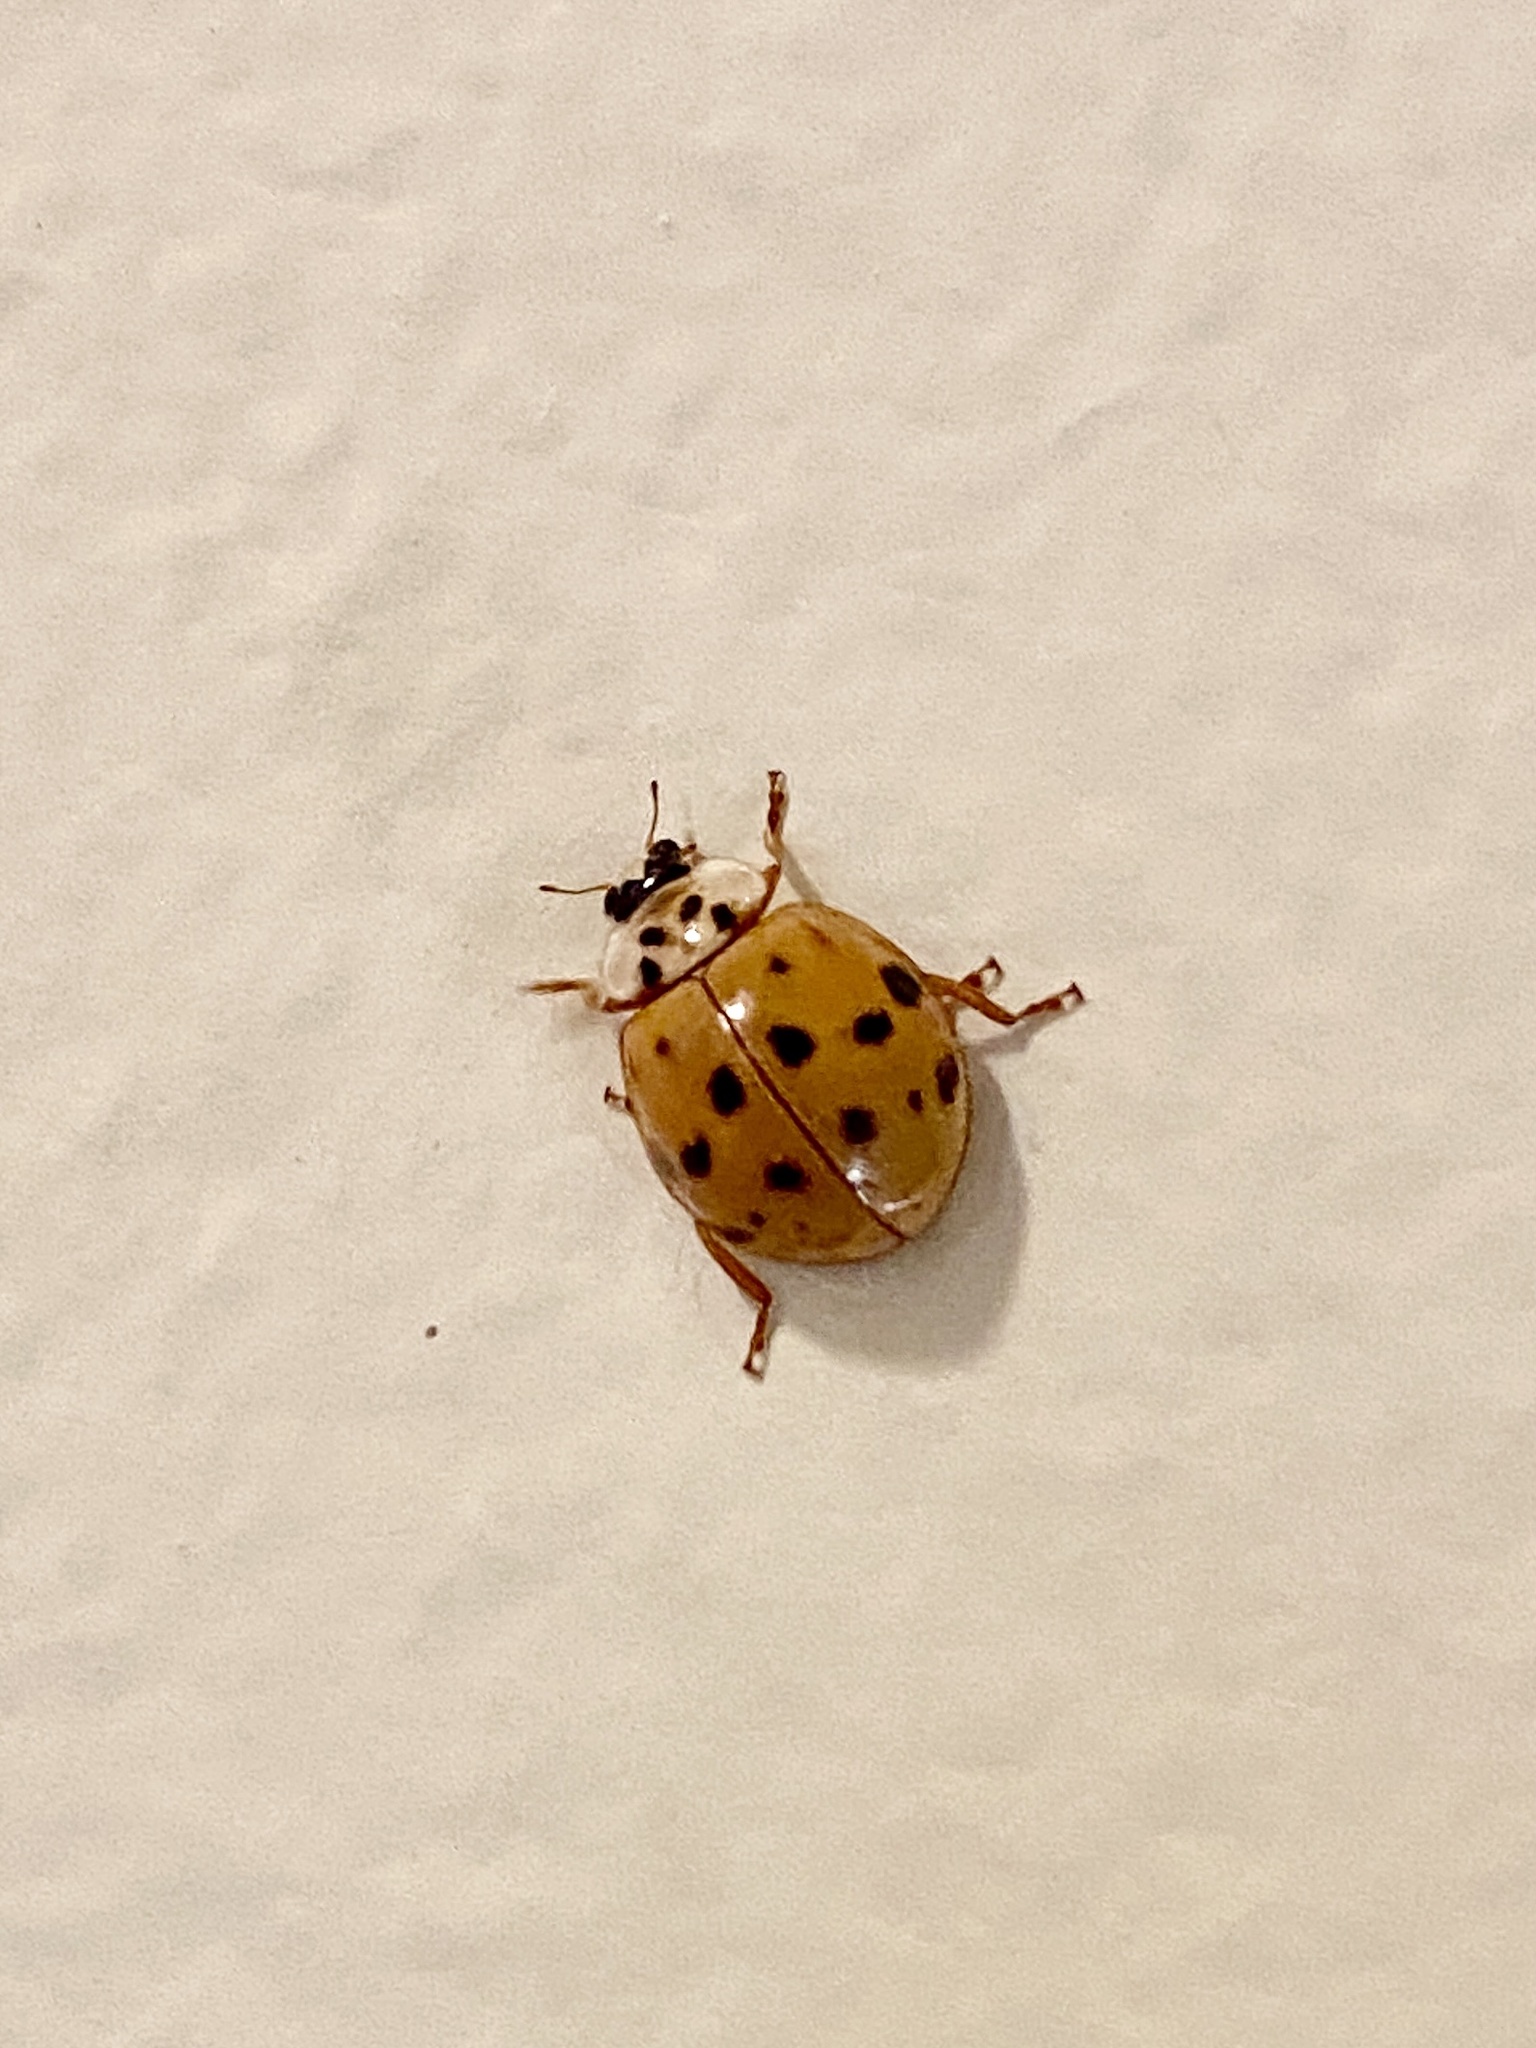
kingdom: Animalia
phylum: Arthropoda
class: Insecta
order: Coleoptera
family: Coccinellidae
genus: Harmonia
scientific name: Harmonia axyridis
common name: Harlequin ladybird
